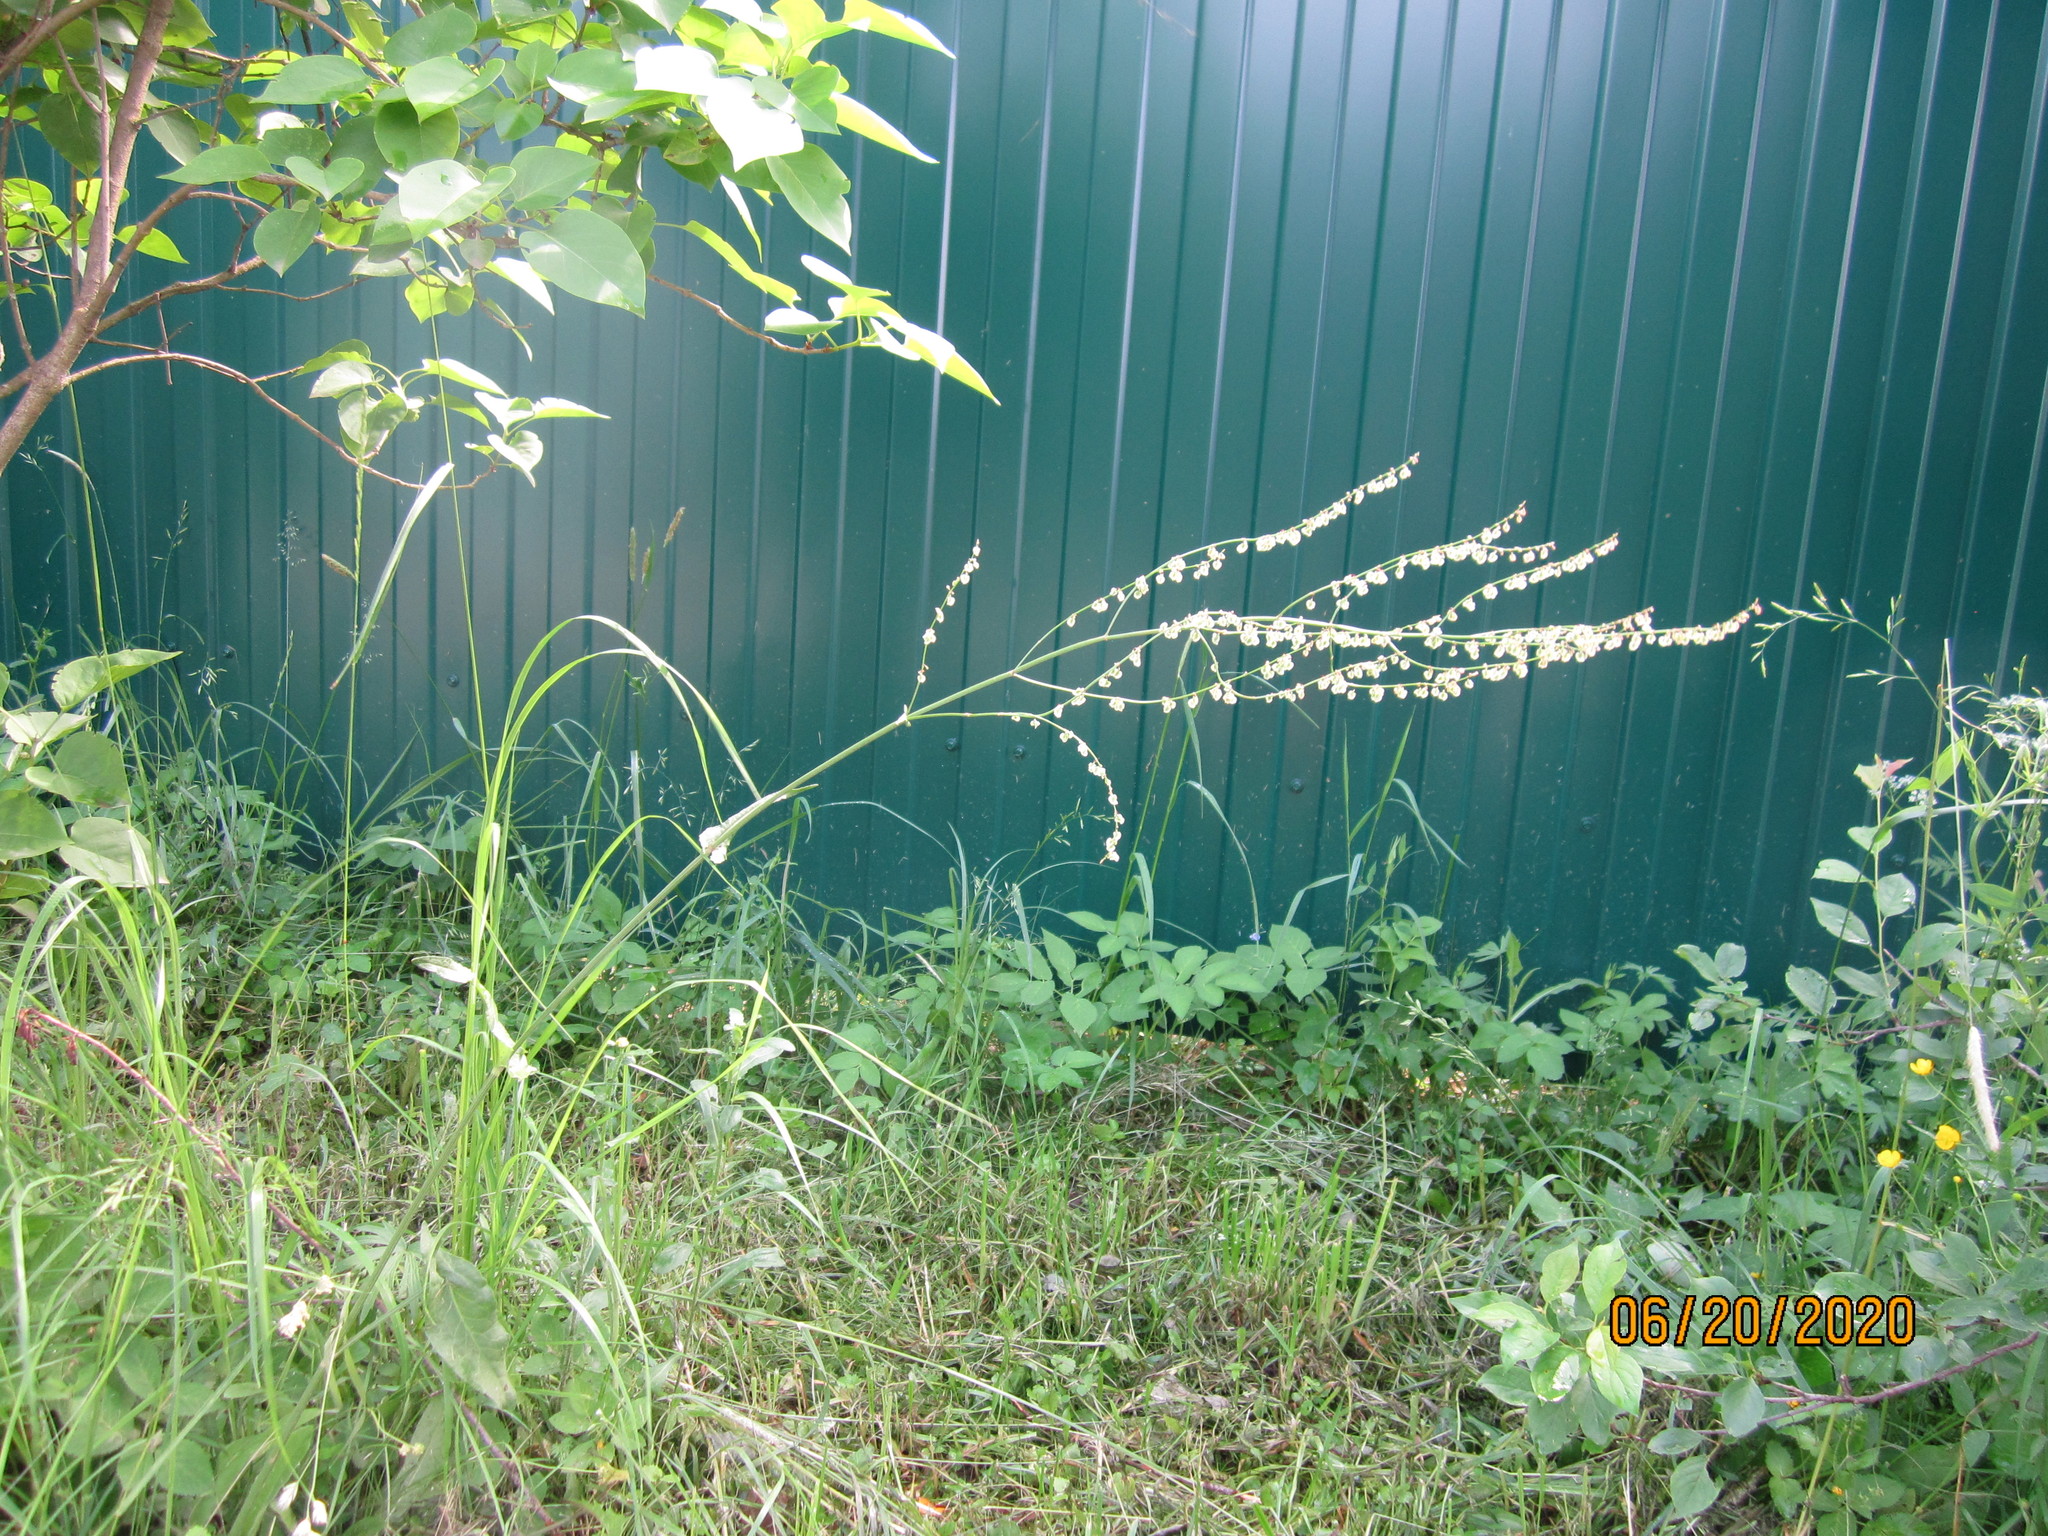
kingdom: Plantae
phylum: Tracheophyta
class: Magnoliopsida
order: Caryophyllales
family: Polygonaceae
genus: Rumex
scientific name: Rumex acetosa
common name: Garden sorrel
